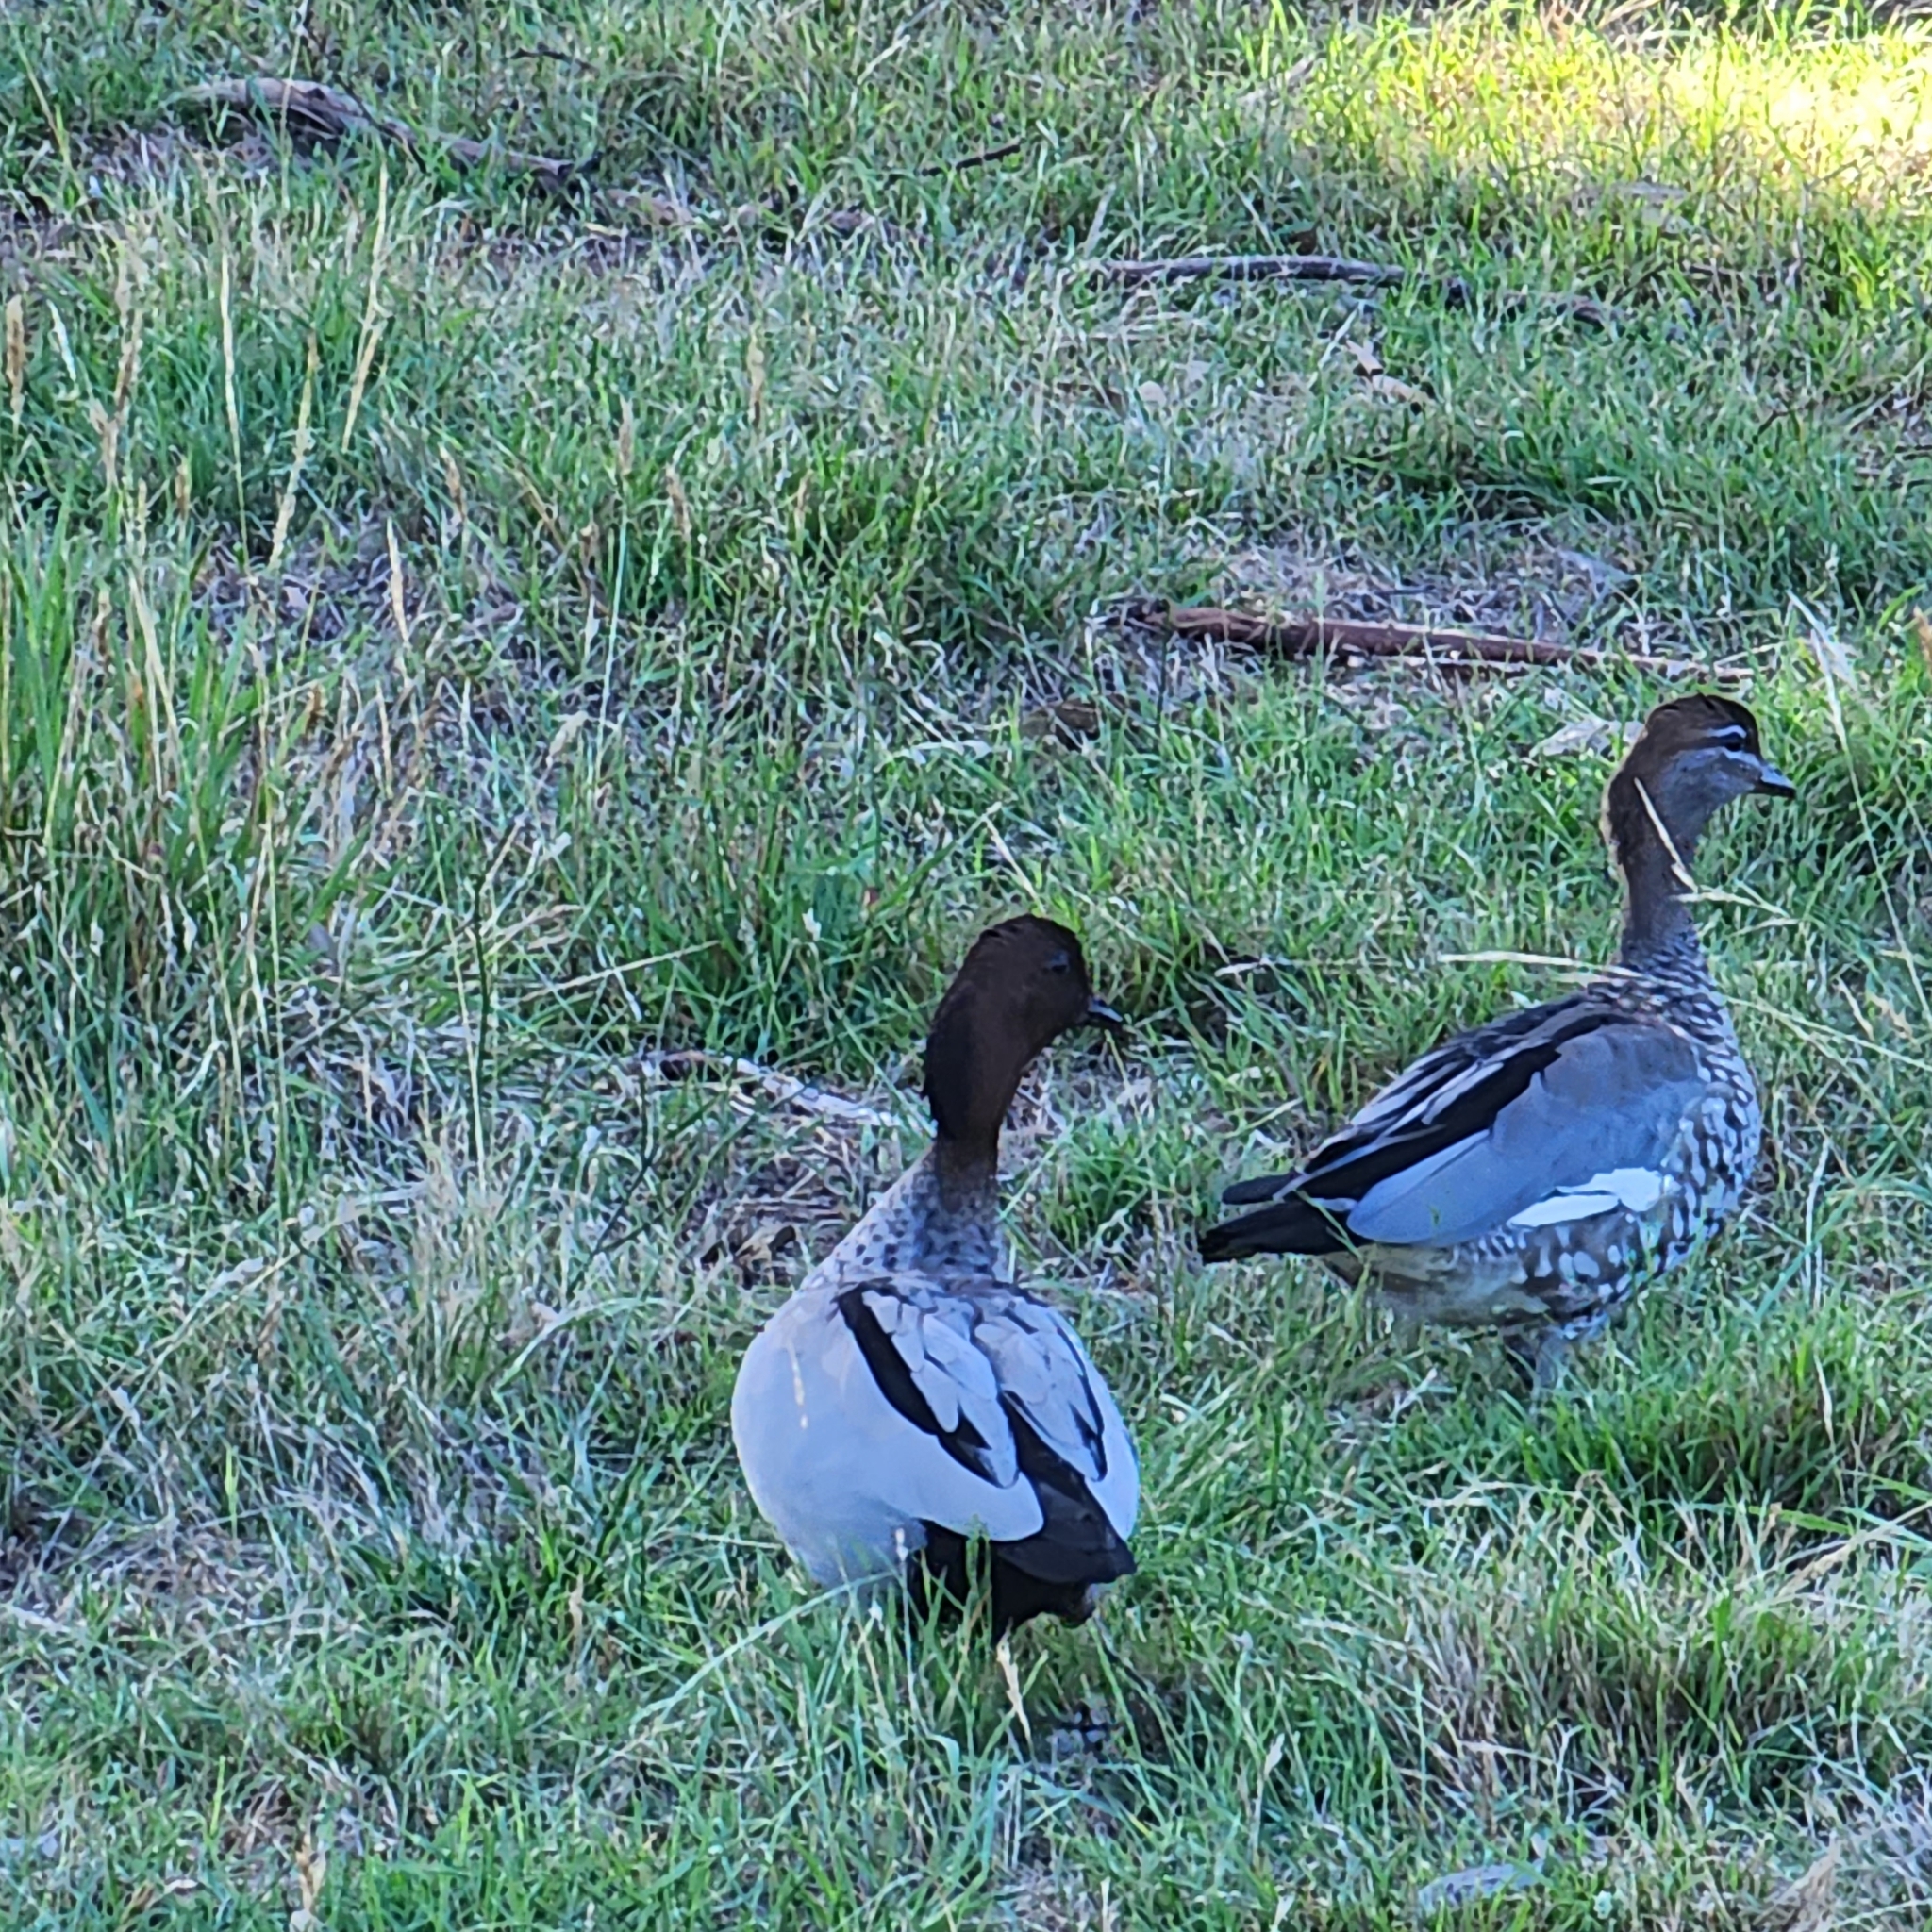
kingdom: Animalia
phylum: Chordata
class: Aves
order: Anseriformes
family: Anatidae
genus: Chenonetta
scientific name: Chenonetta jubata
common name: Maned duck
